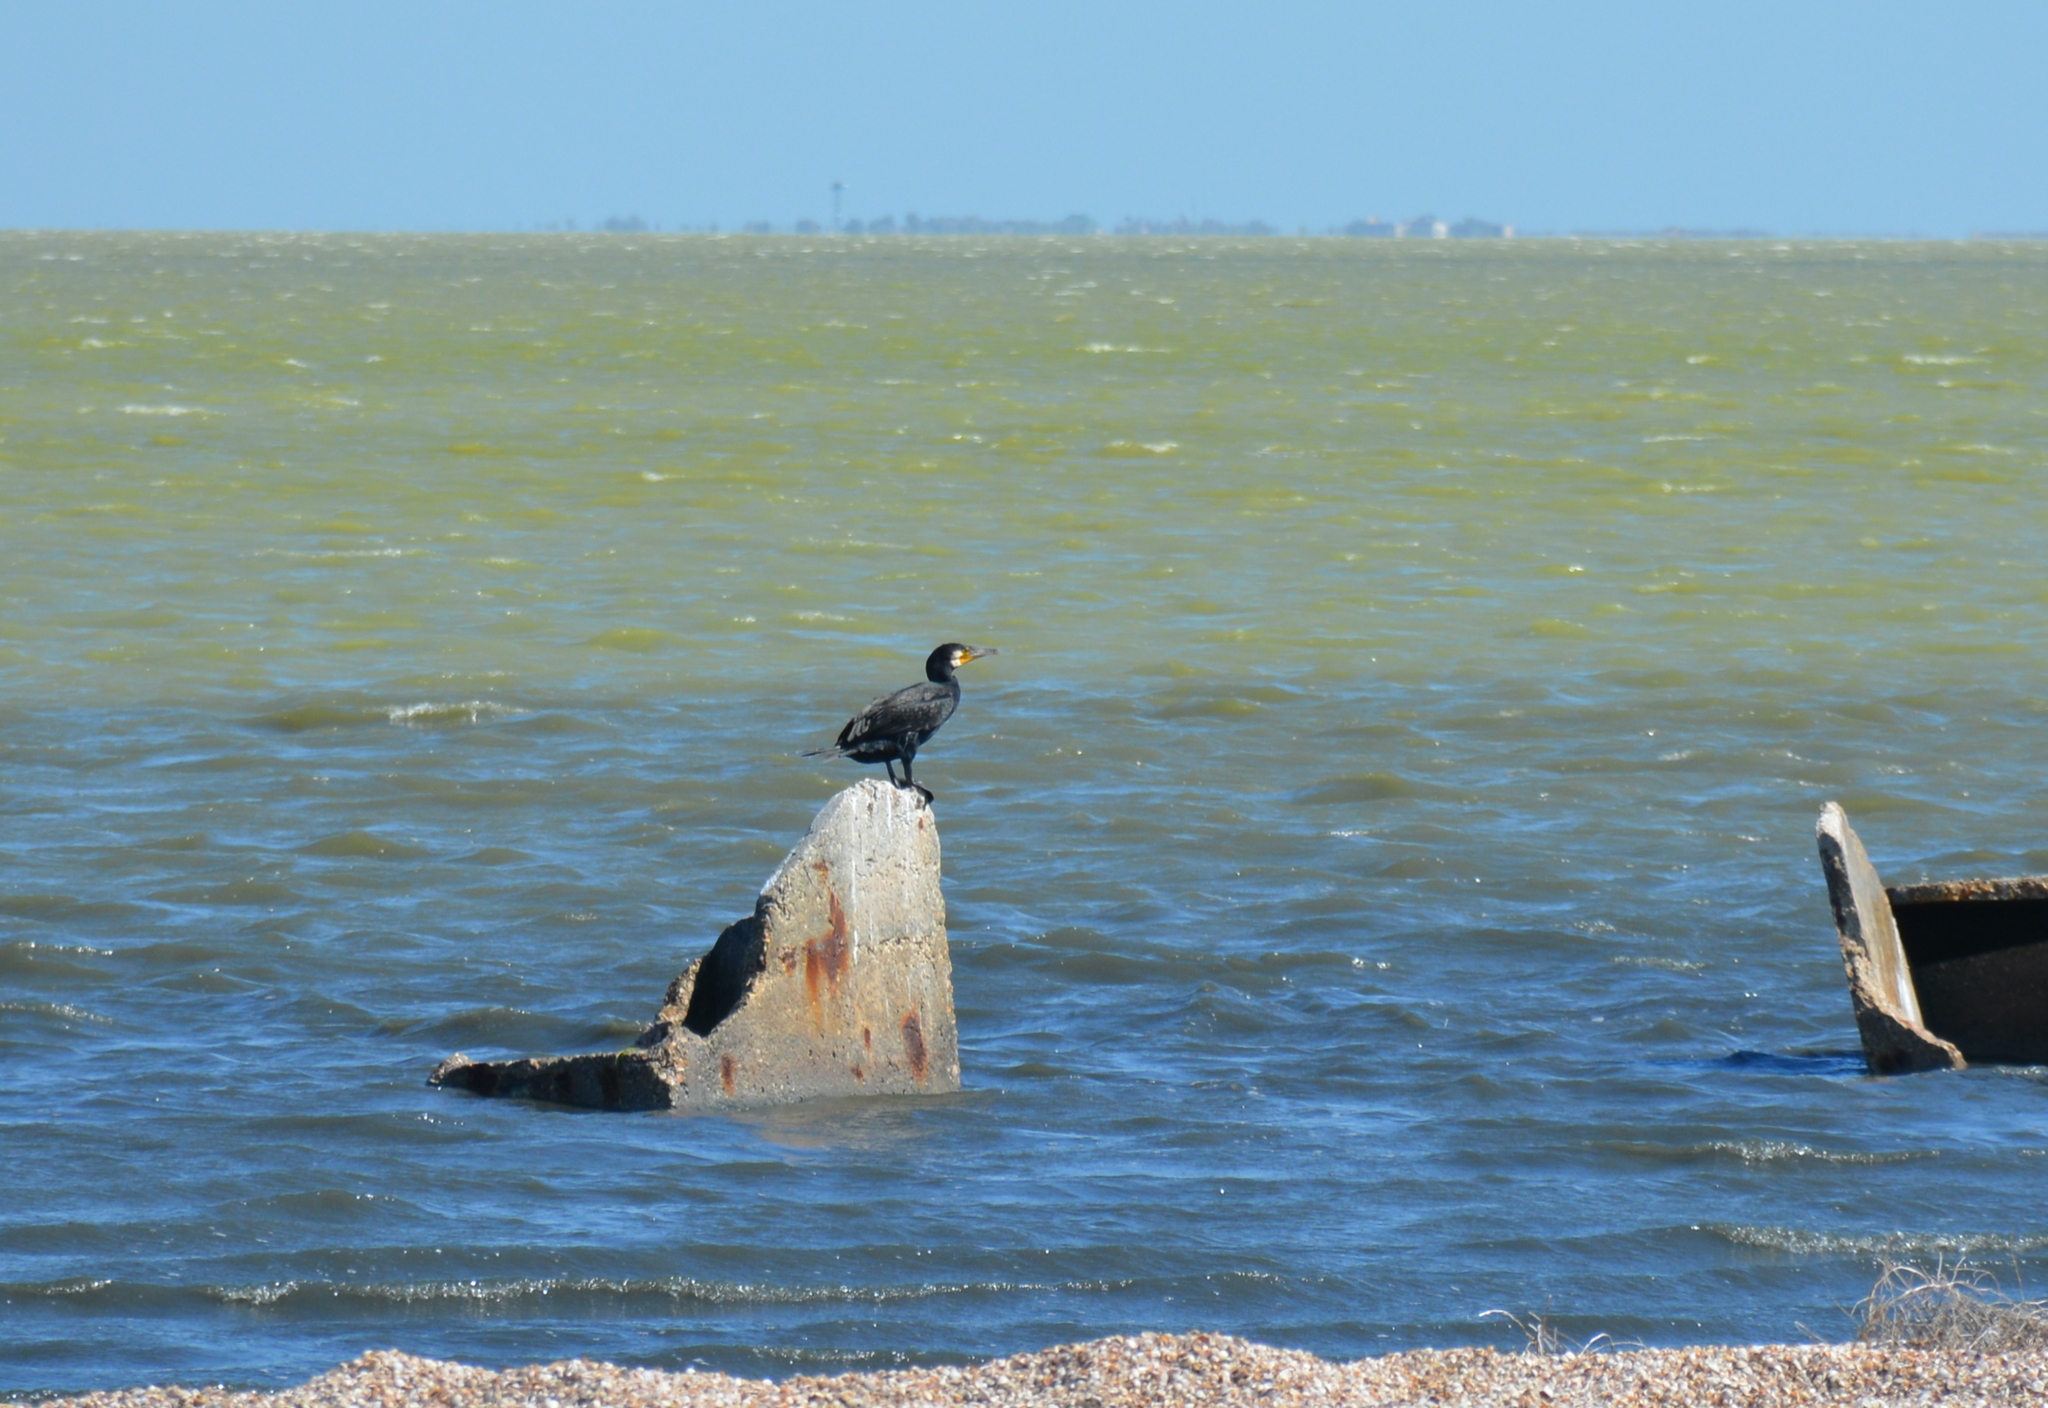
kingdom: Animalia
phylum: Chordata
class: Aves
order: Suliformes
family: Phalacrocoracidae
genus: Phalacrocorax
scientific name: Phalacrocorax carbo
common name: Great cormorant
